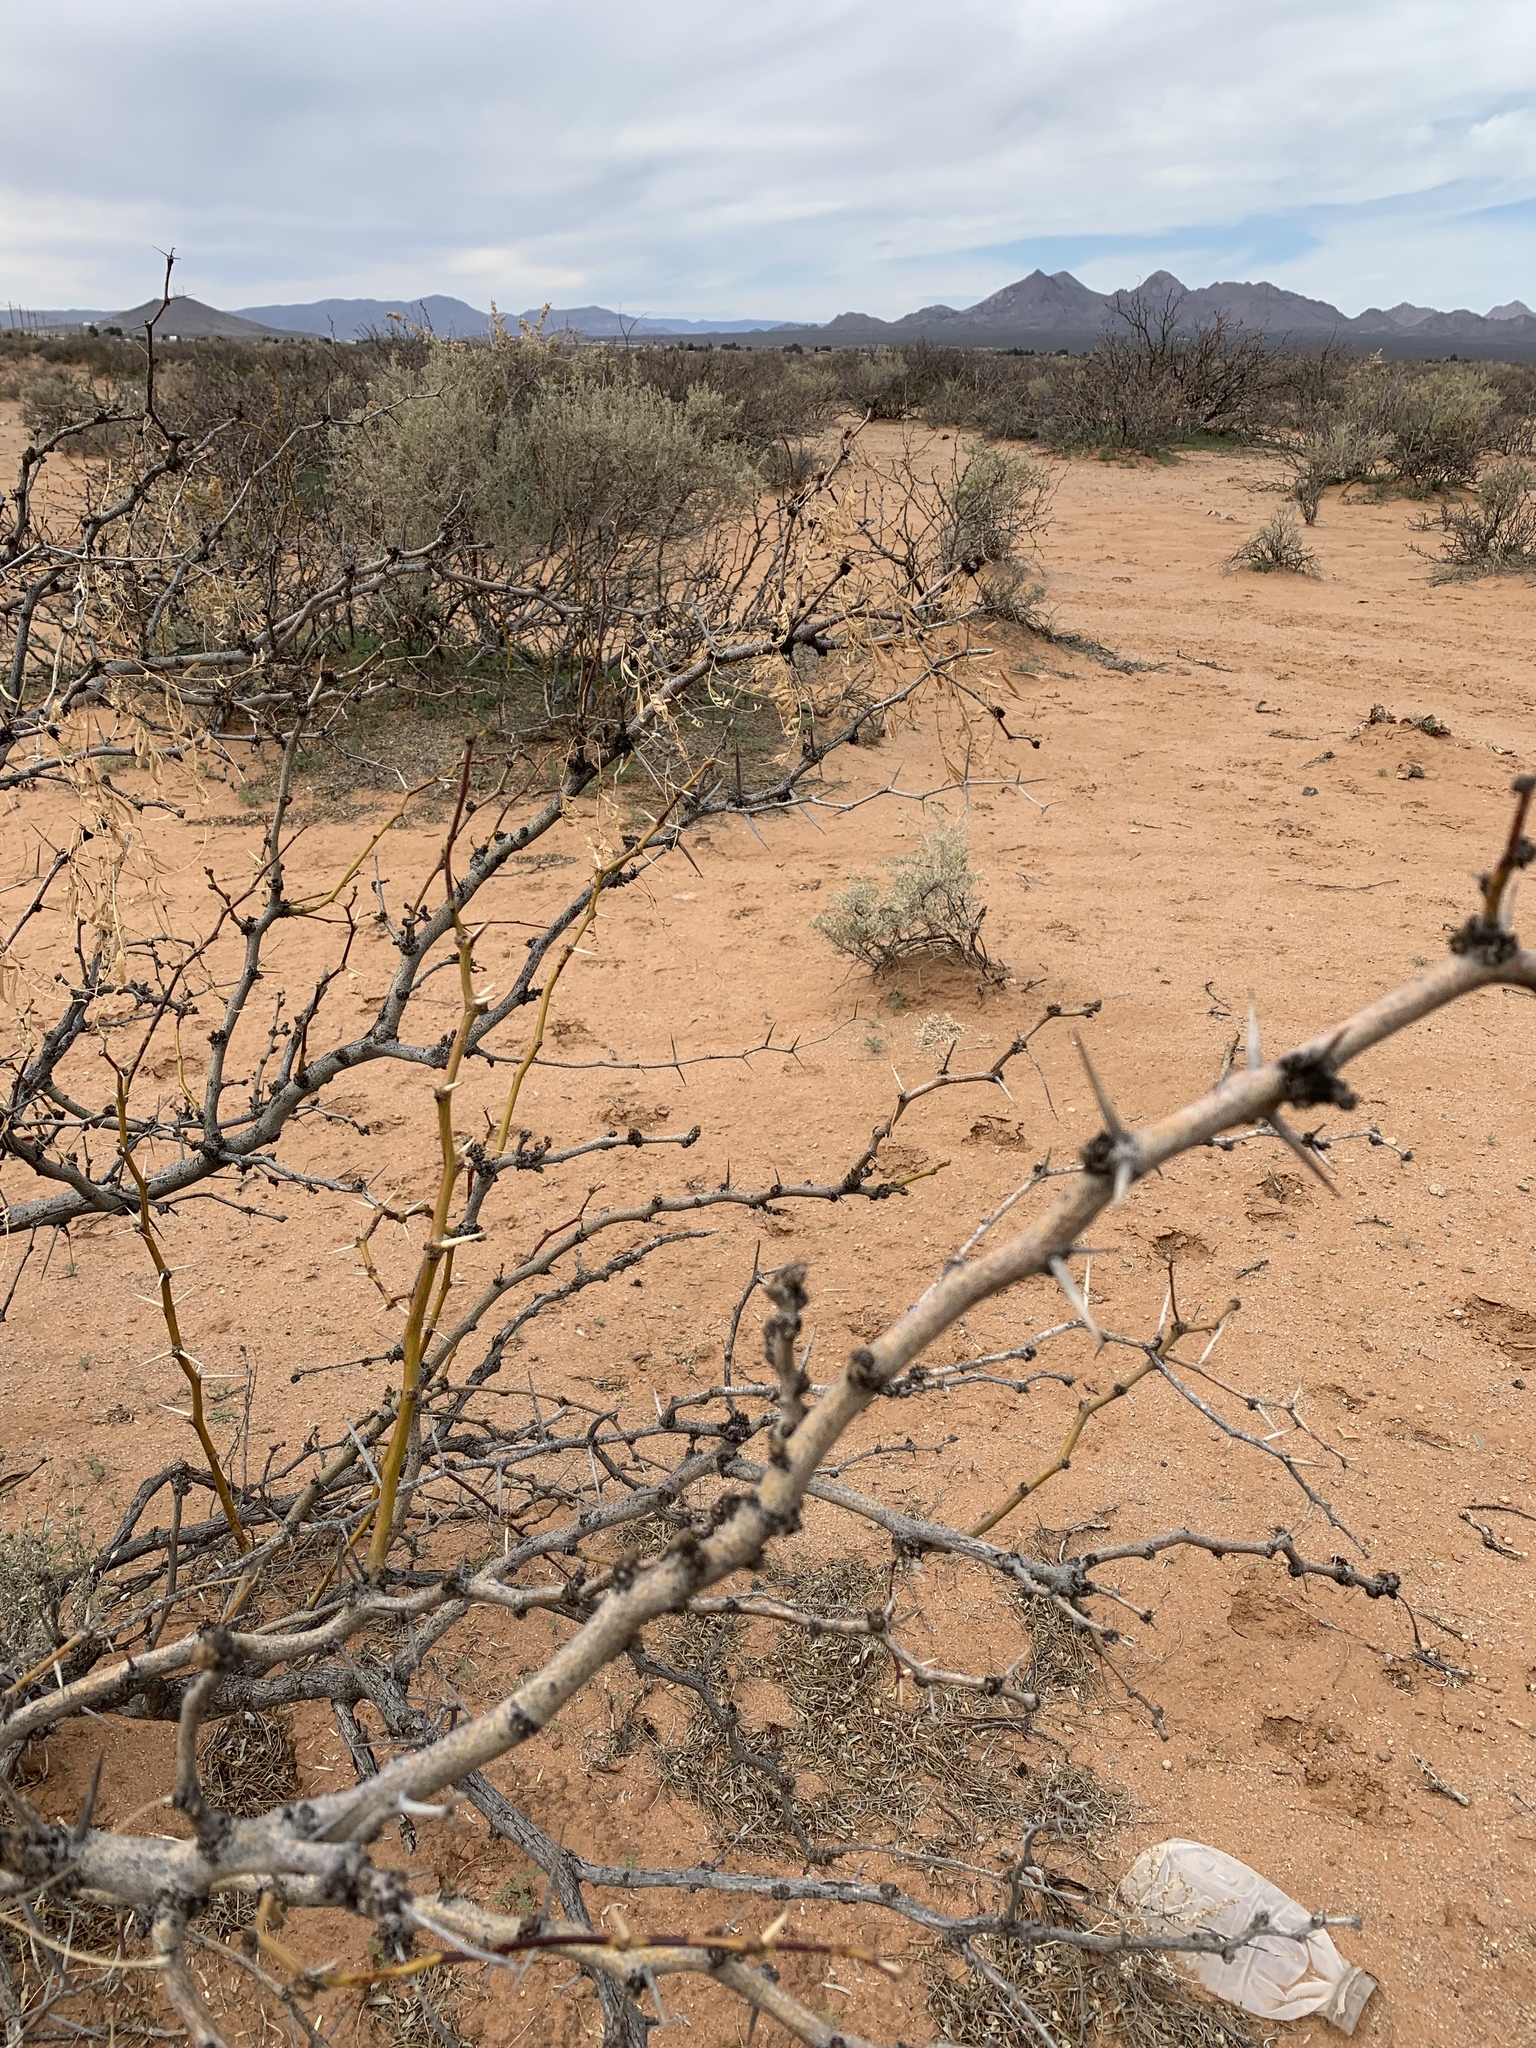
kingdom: Plantae
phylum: Tracheophyta
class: Magnoliopsida
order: Fabales
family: Fabaceae
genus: Prosopis
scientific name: Prosopis glandulosa
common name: Honey mesquite
